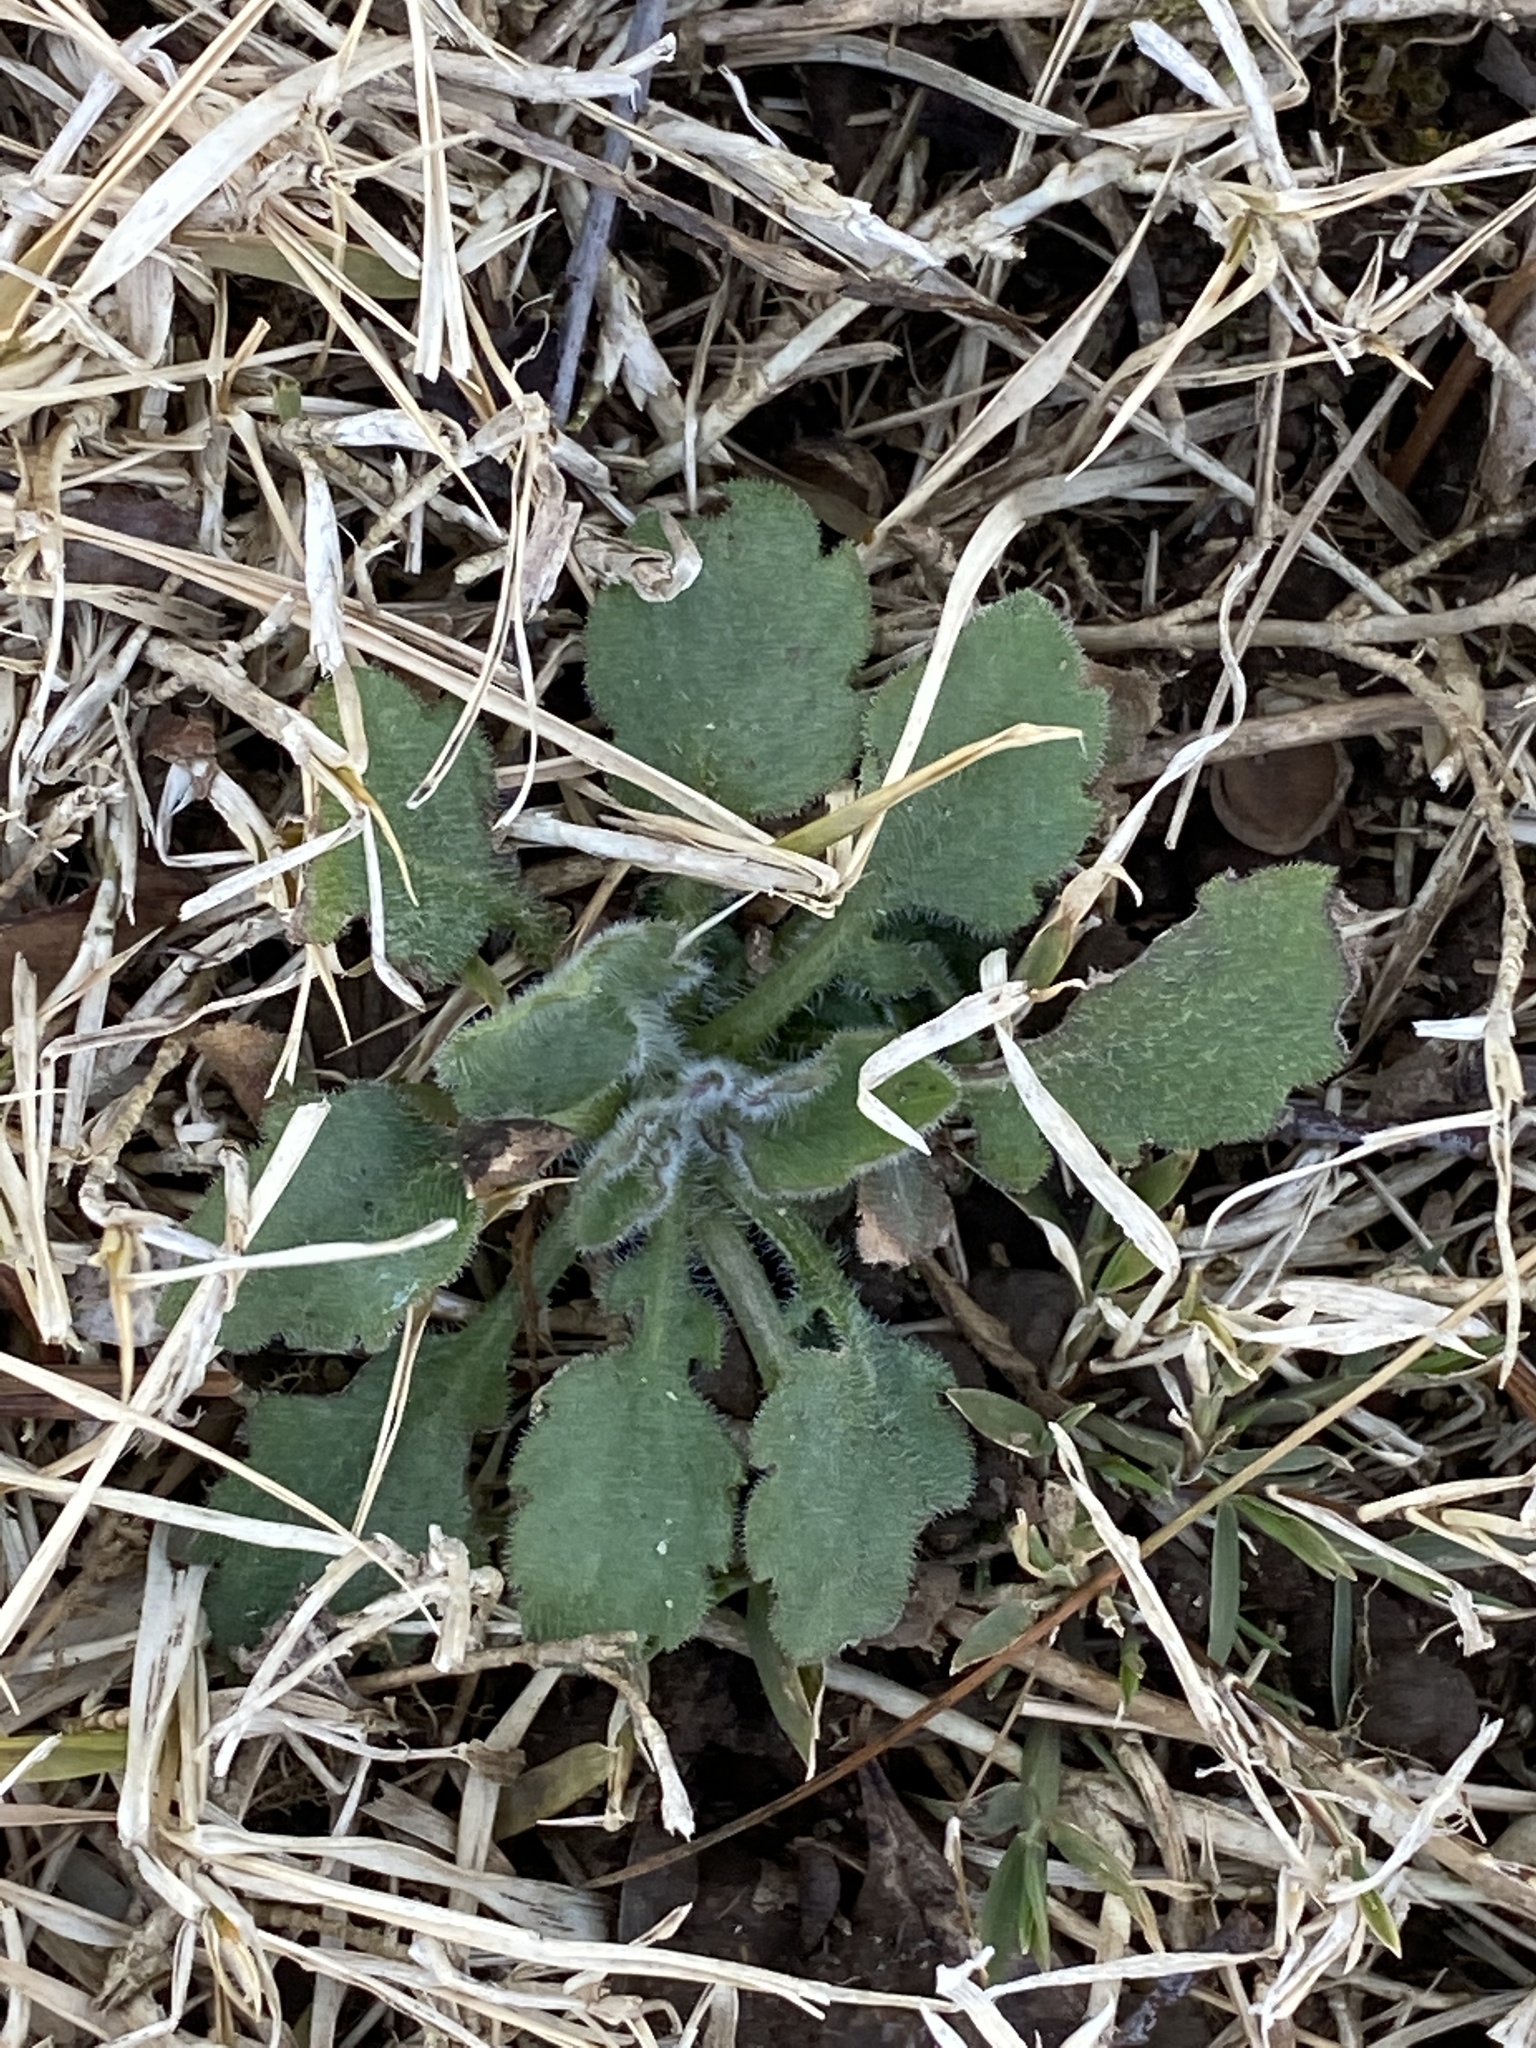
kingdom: Plantae
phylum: Tracheophyta
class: Magnoliopsida
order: Asterales
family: Asteraceae
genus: Erigeron
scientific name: Erigeron canadensis
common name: Canadian fleabane
